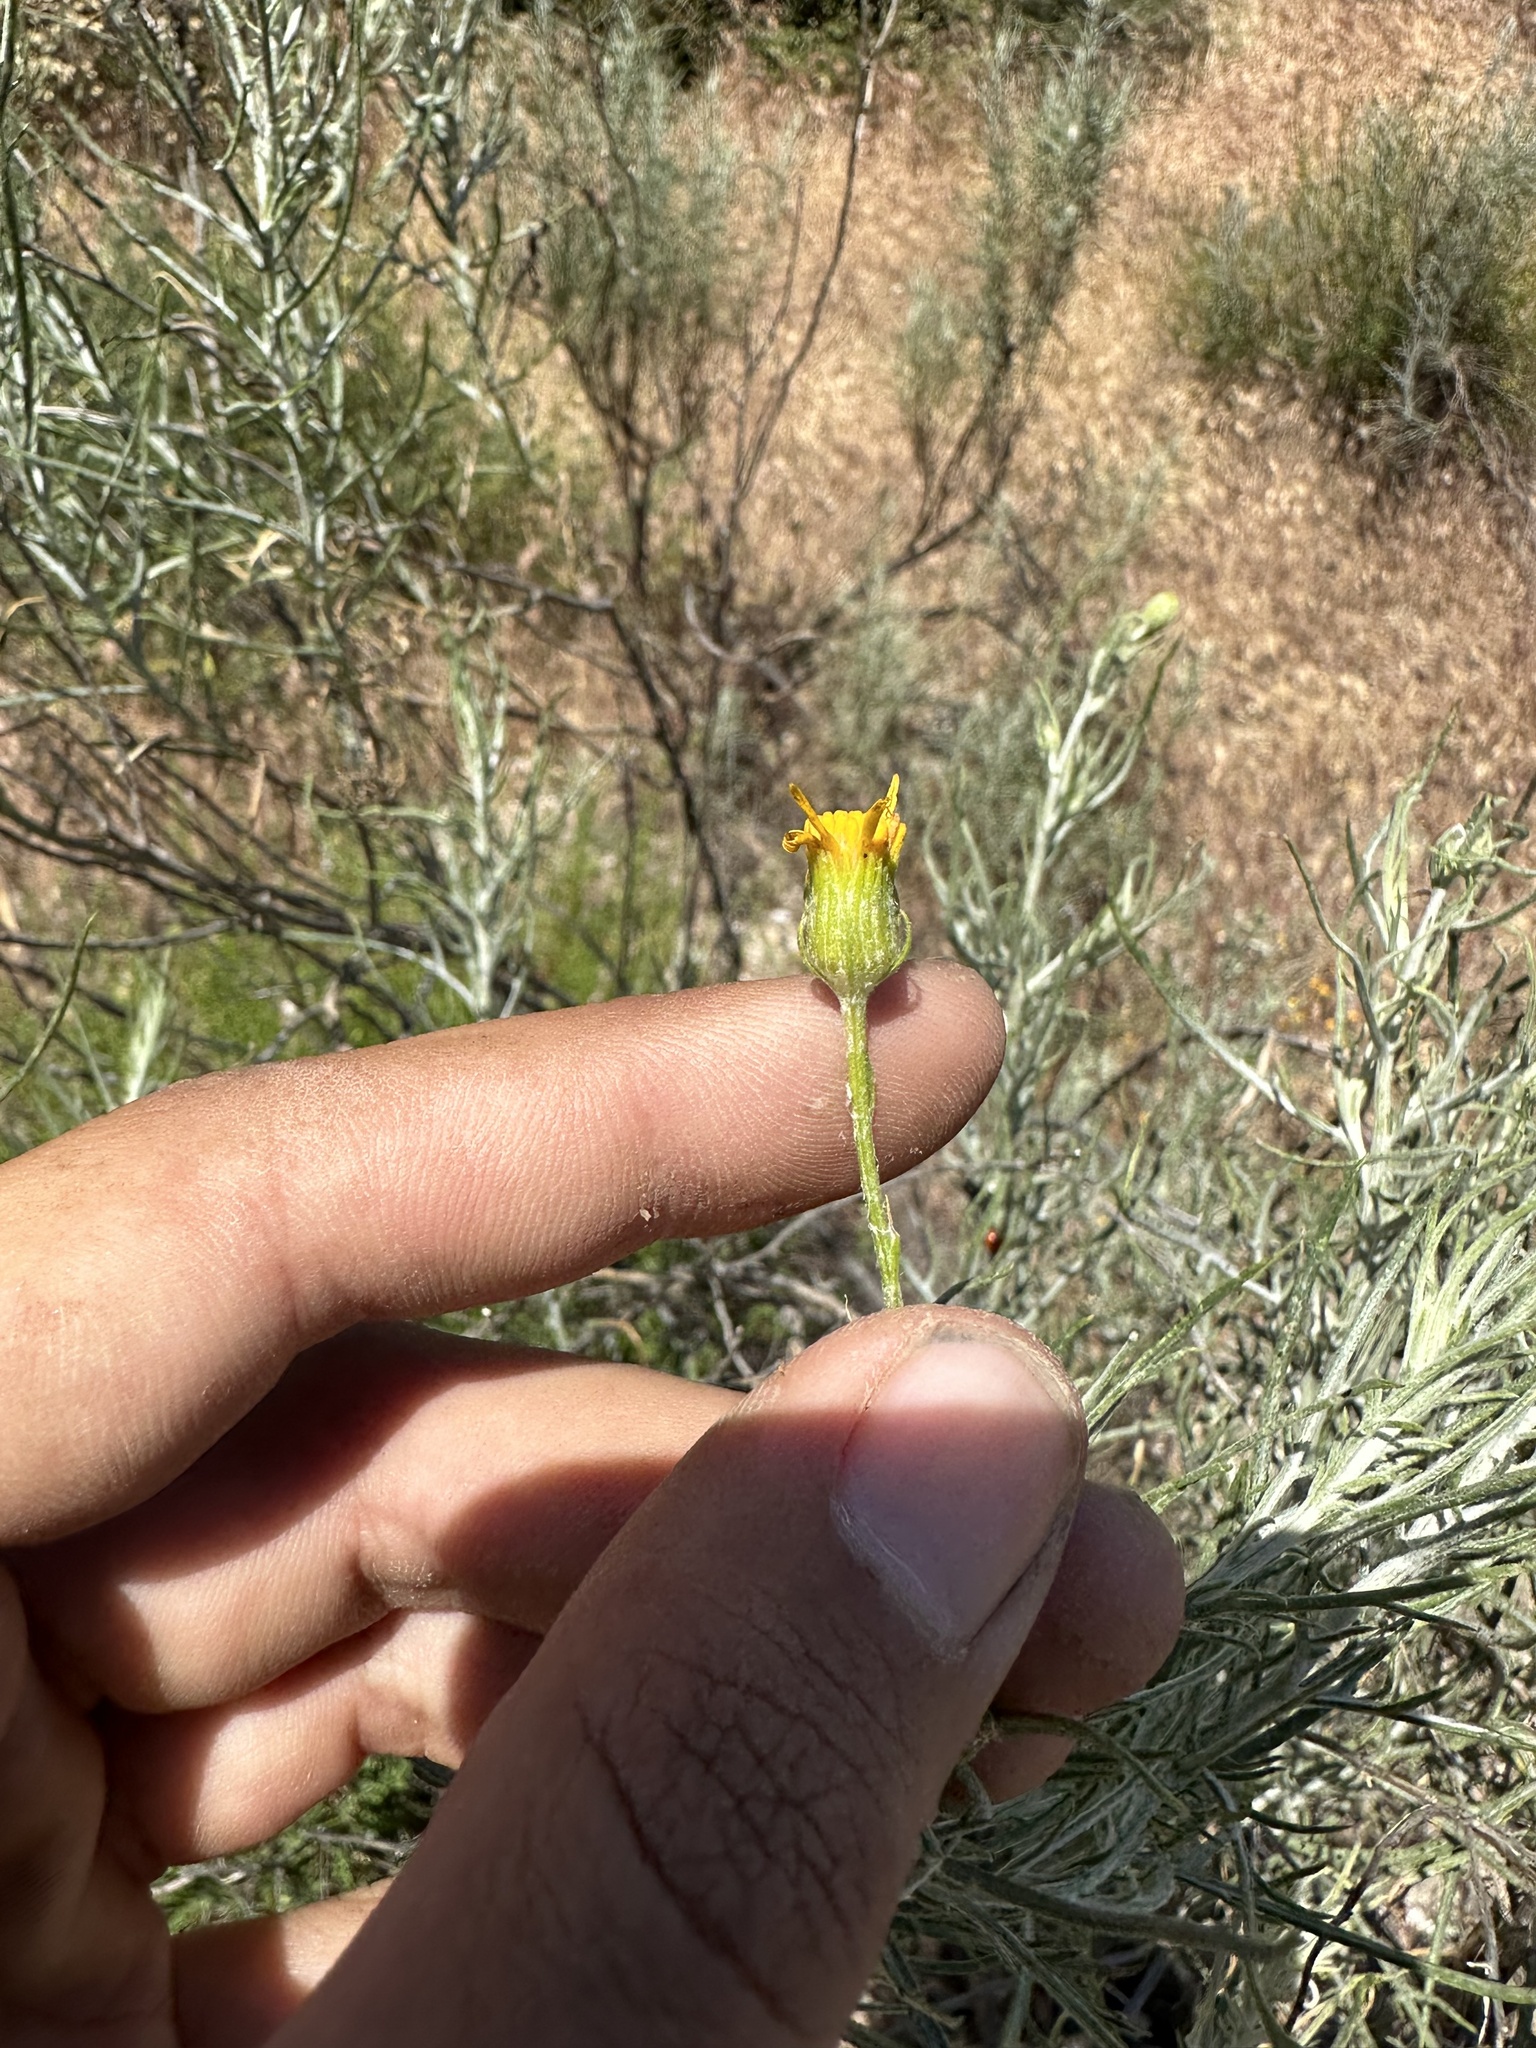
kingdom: Plantae
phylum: Tracheophyta
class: Magnoliopsida
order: Asterales
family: Asteraceae
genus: Senecio
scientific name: Senecio flaccidus
